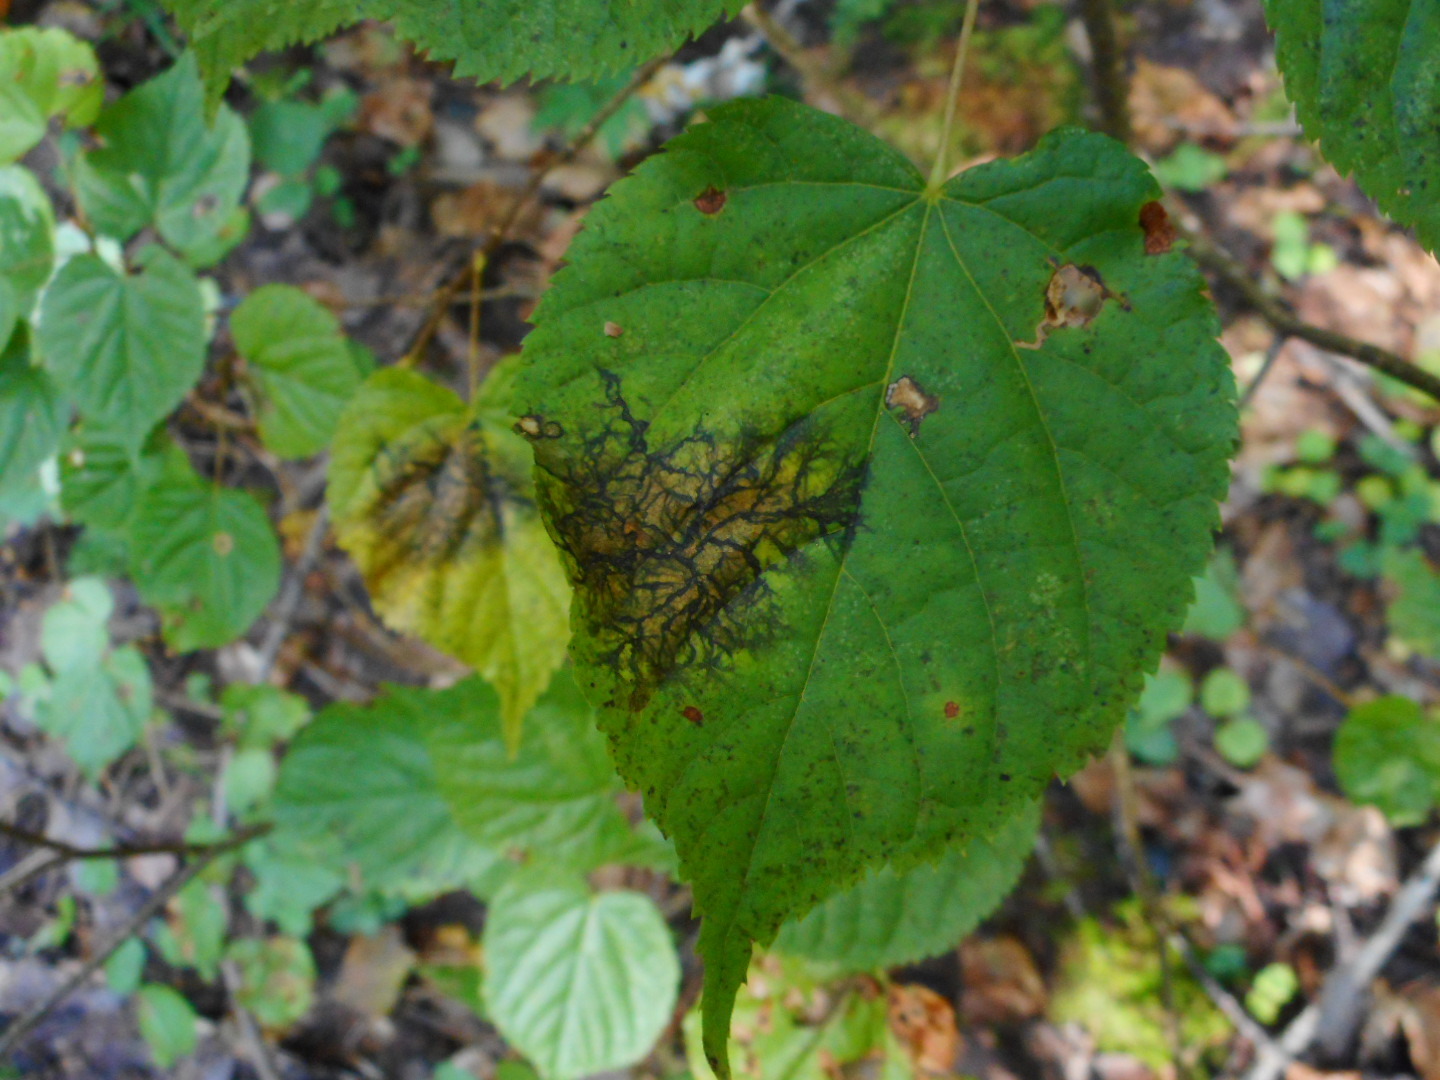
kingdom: Fungi
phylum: Ascomycota
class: Dothideomycetes
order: Pleosporales
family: Didymosphaeriaceae
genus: Paraconiothyrium
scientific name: Paraconiothyrium tiliae
